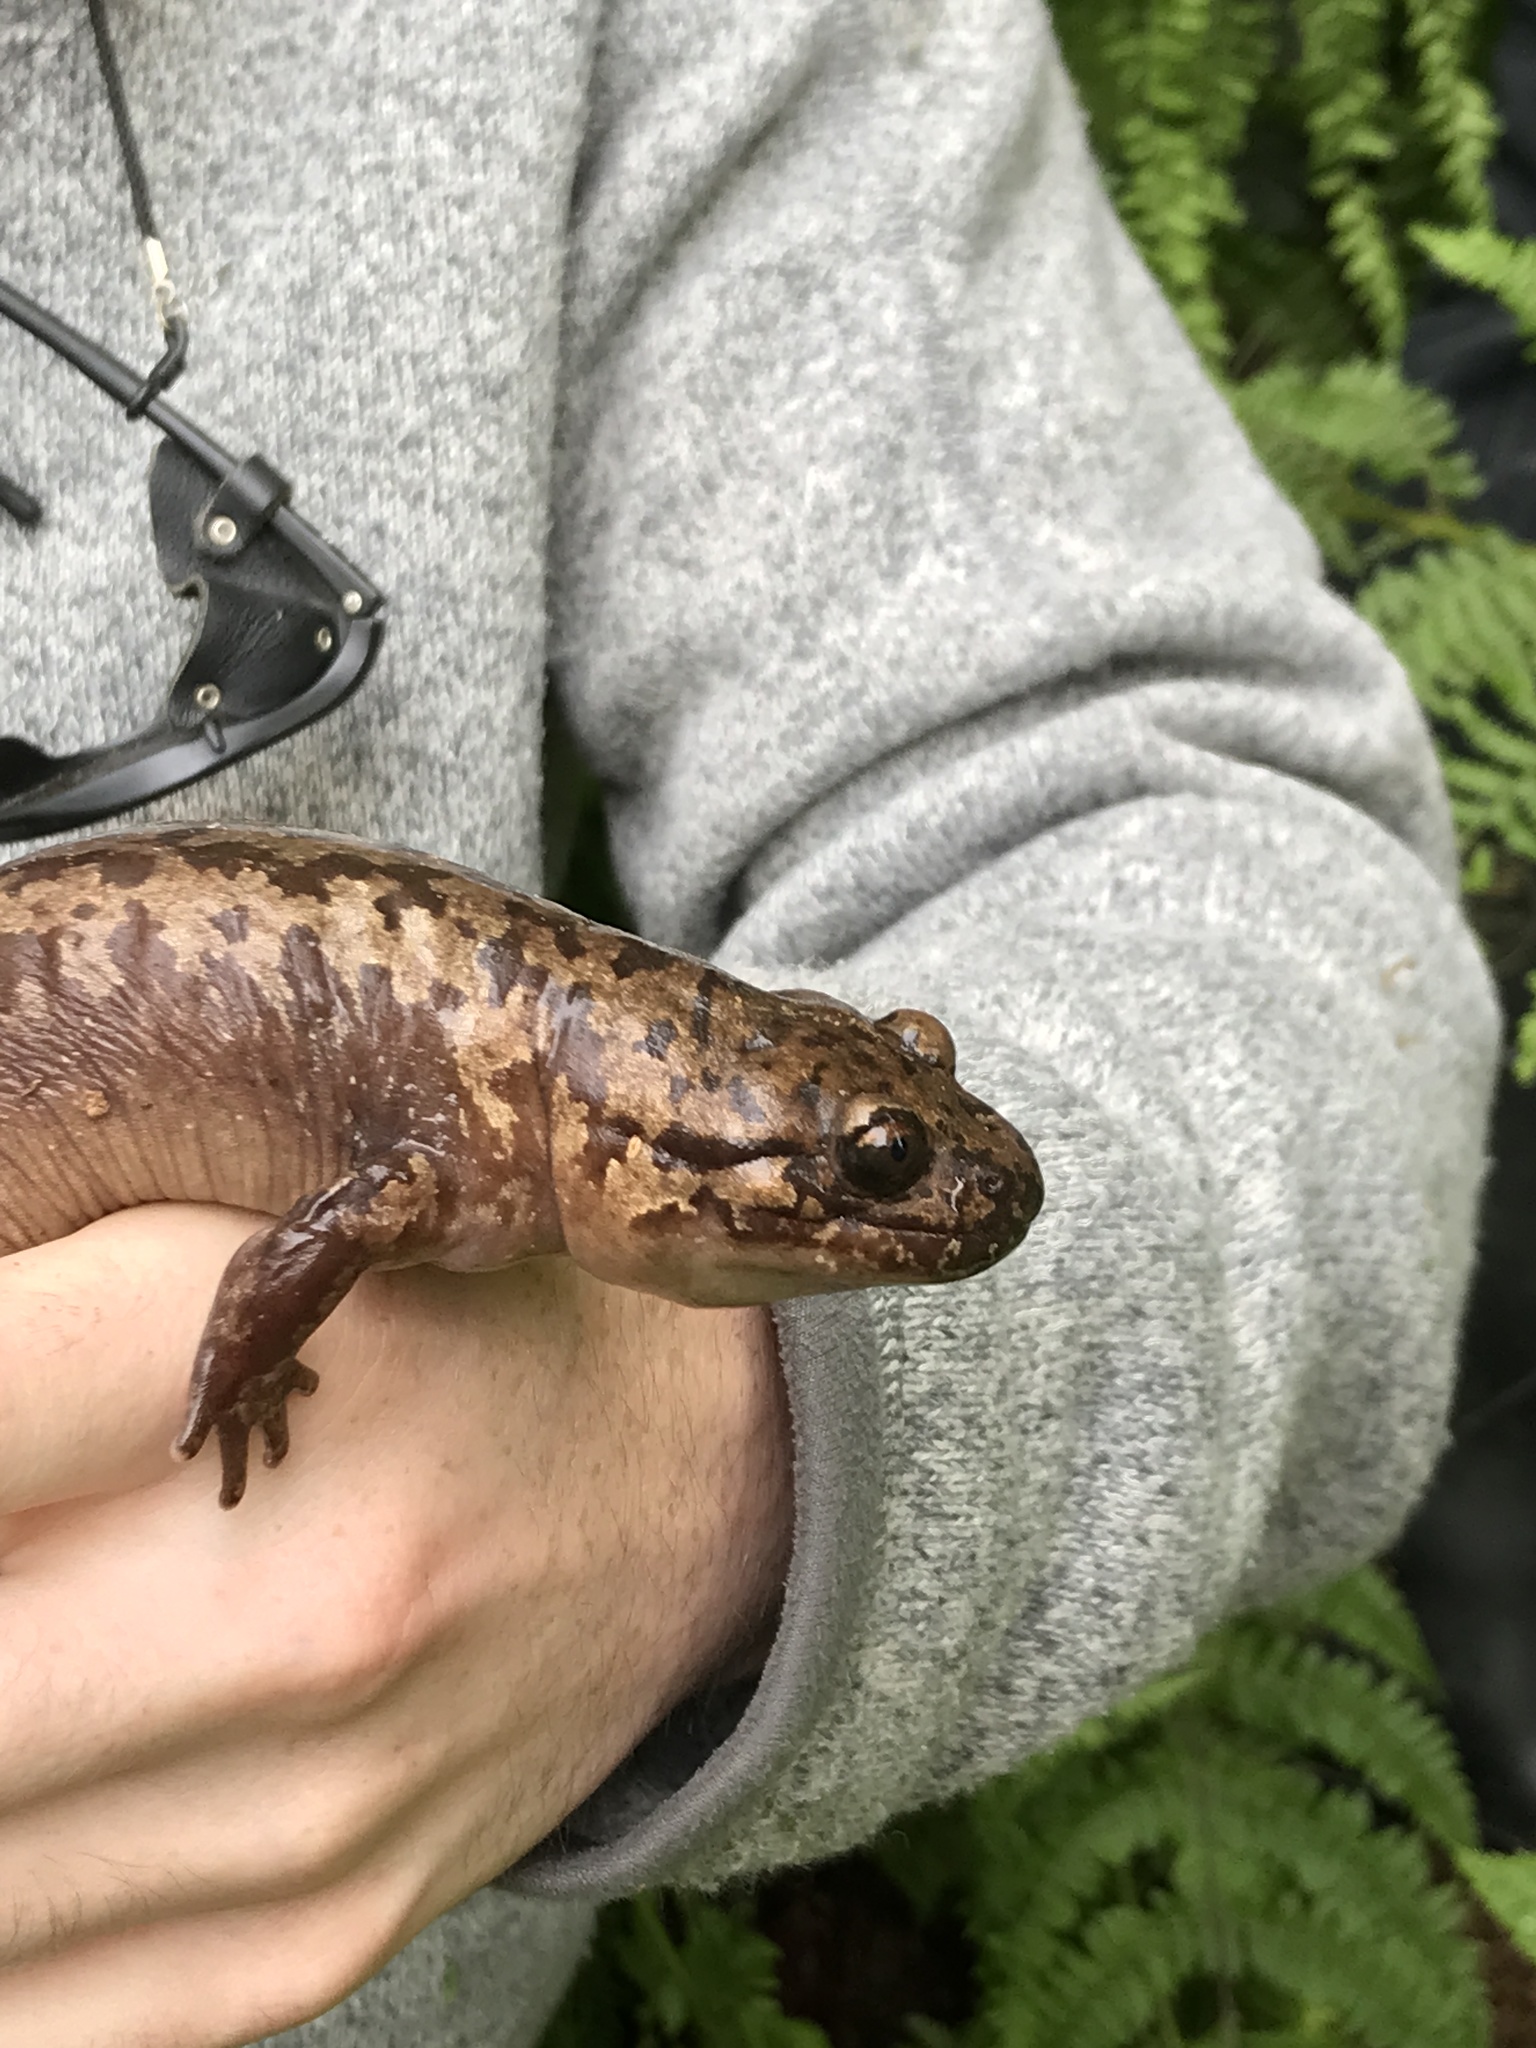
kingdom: Animalia
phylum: Chordata
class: Amphibia
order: Caudata
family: Ambystomatidae
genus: Dicamptodon
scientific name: Dicamptodon tenebrosus
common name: Coastal giant salamander
